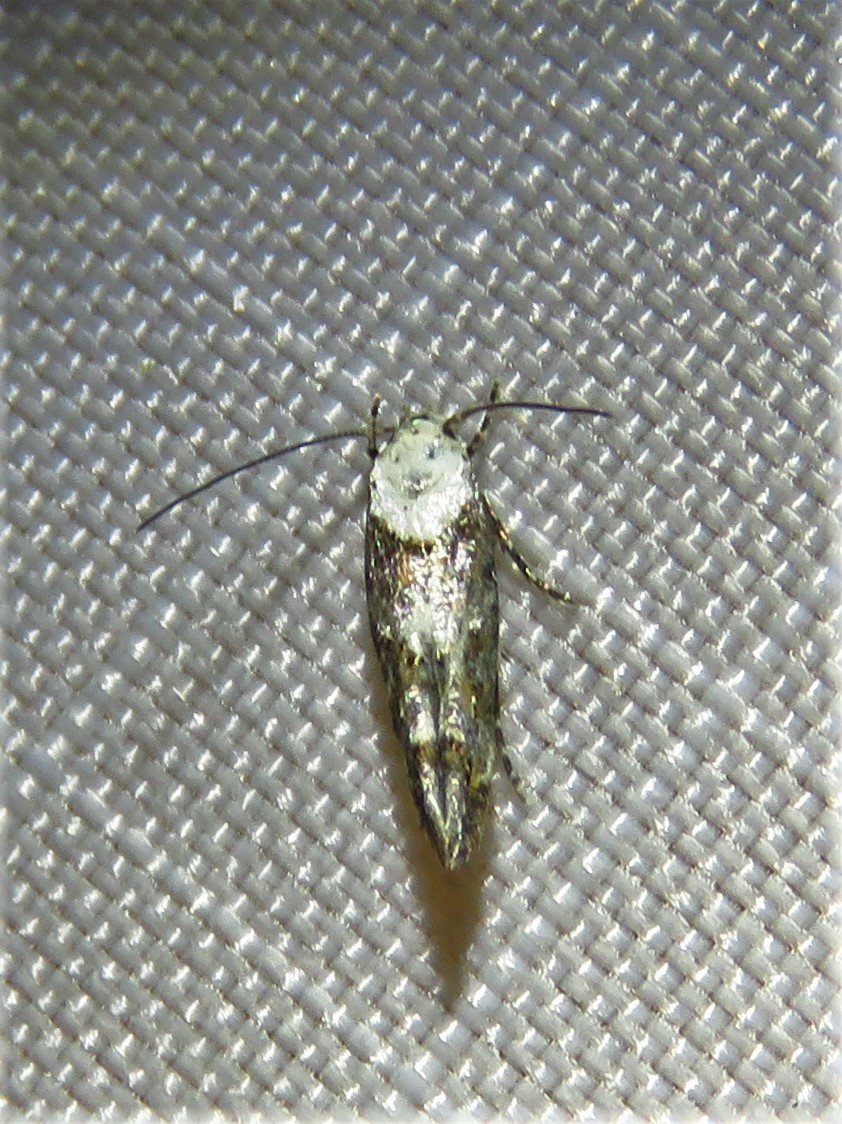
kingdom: Animalia
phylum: Arthropoda
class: Insecta
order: Lepidoptera
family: Momphidae
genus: Mompha
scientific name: Mompha albocapitella
